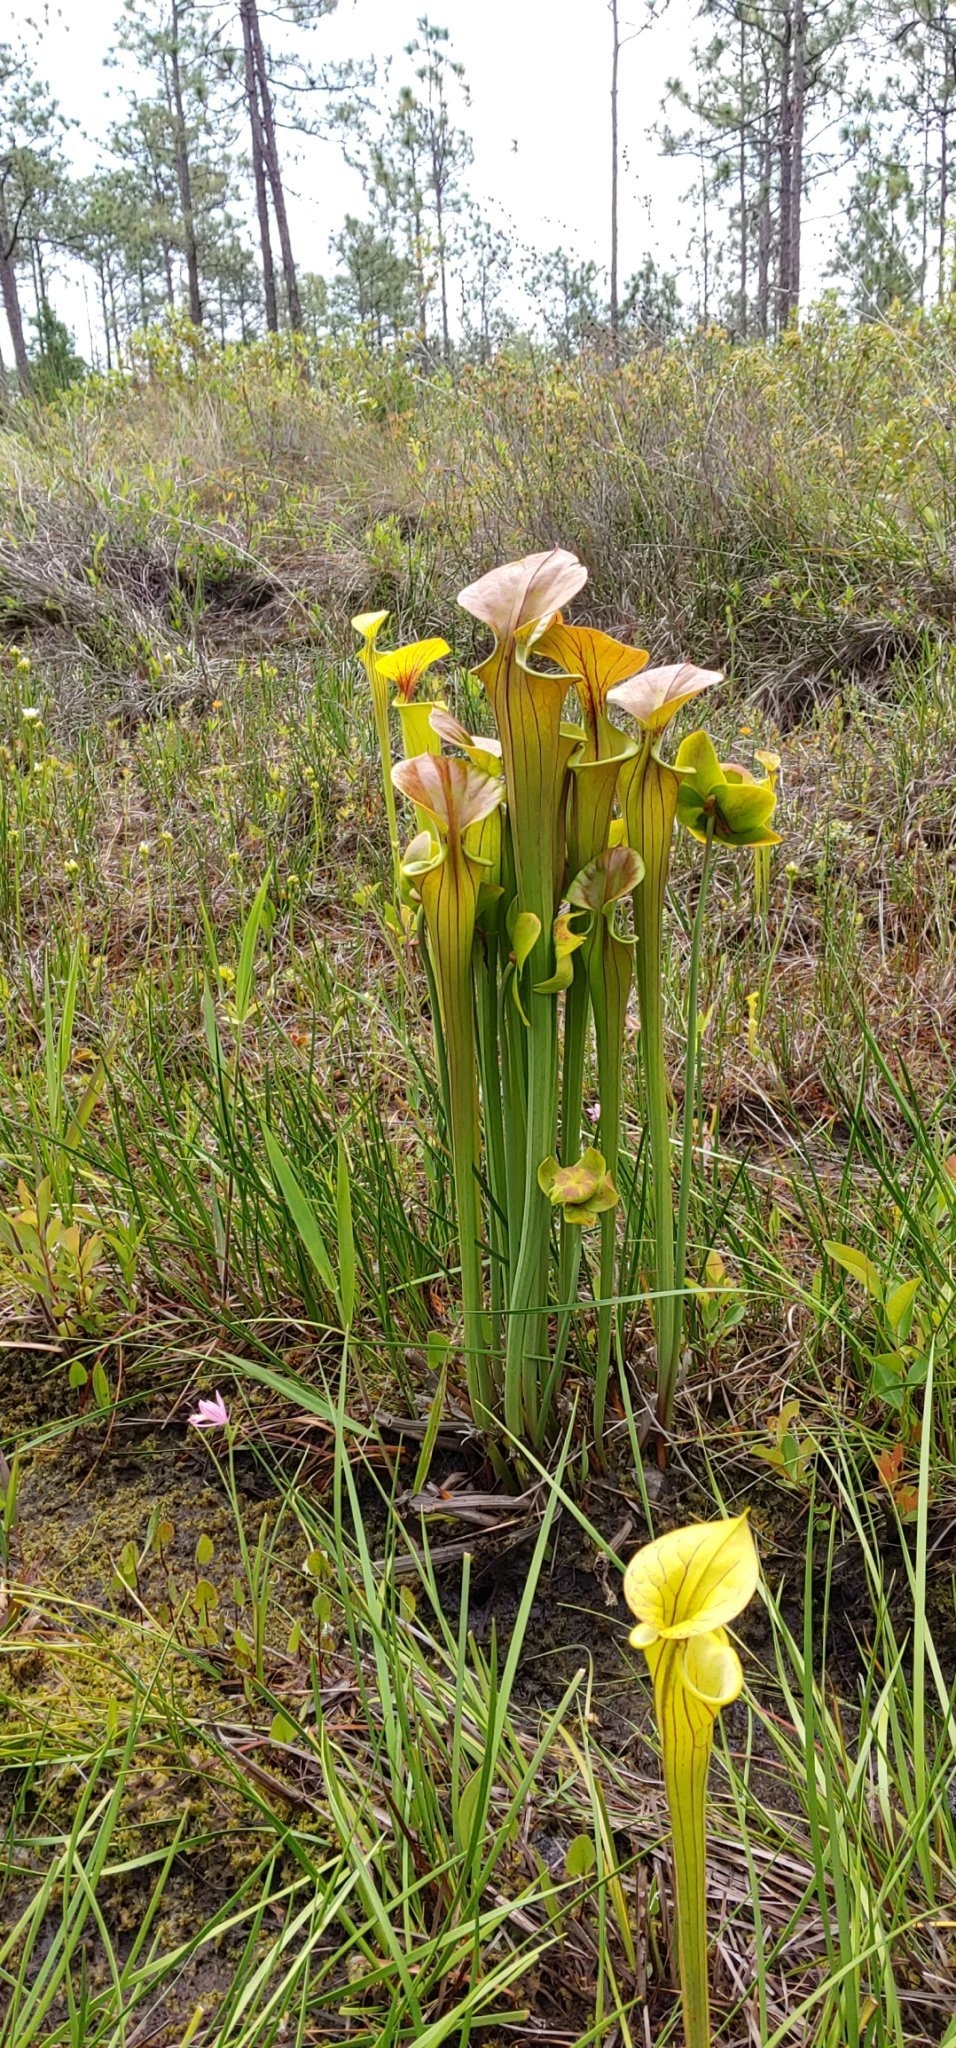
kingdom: Plantae
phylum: Tracheophyta
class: Magnoliopsida
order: Ericales
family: Sarraceniaceae
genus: Sarracenia
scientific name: Sarracenia flava
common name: Trumpets
